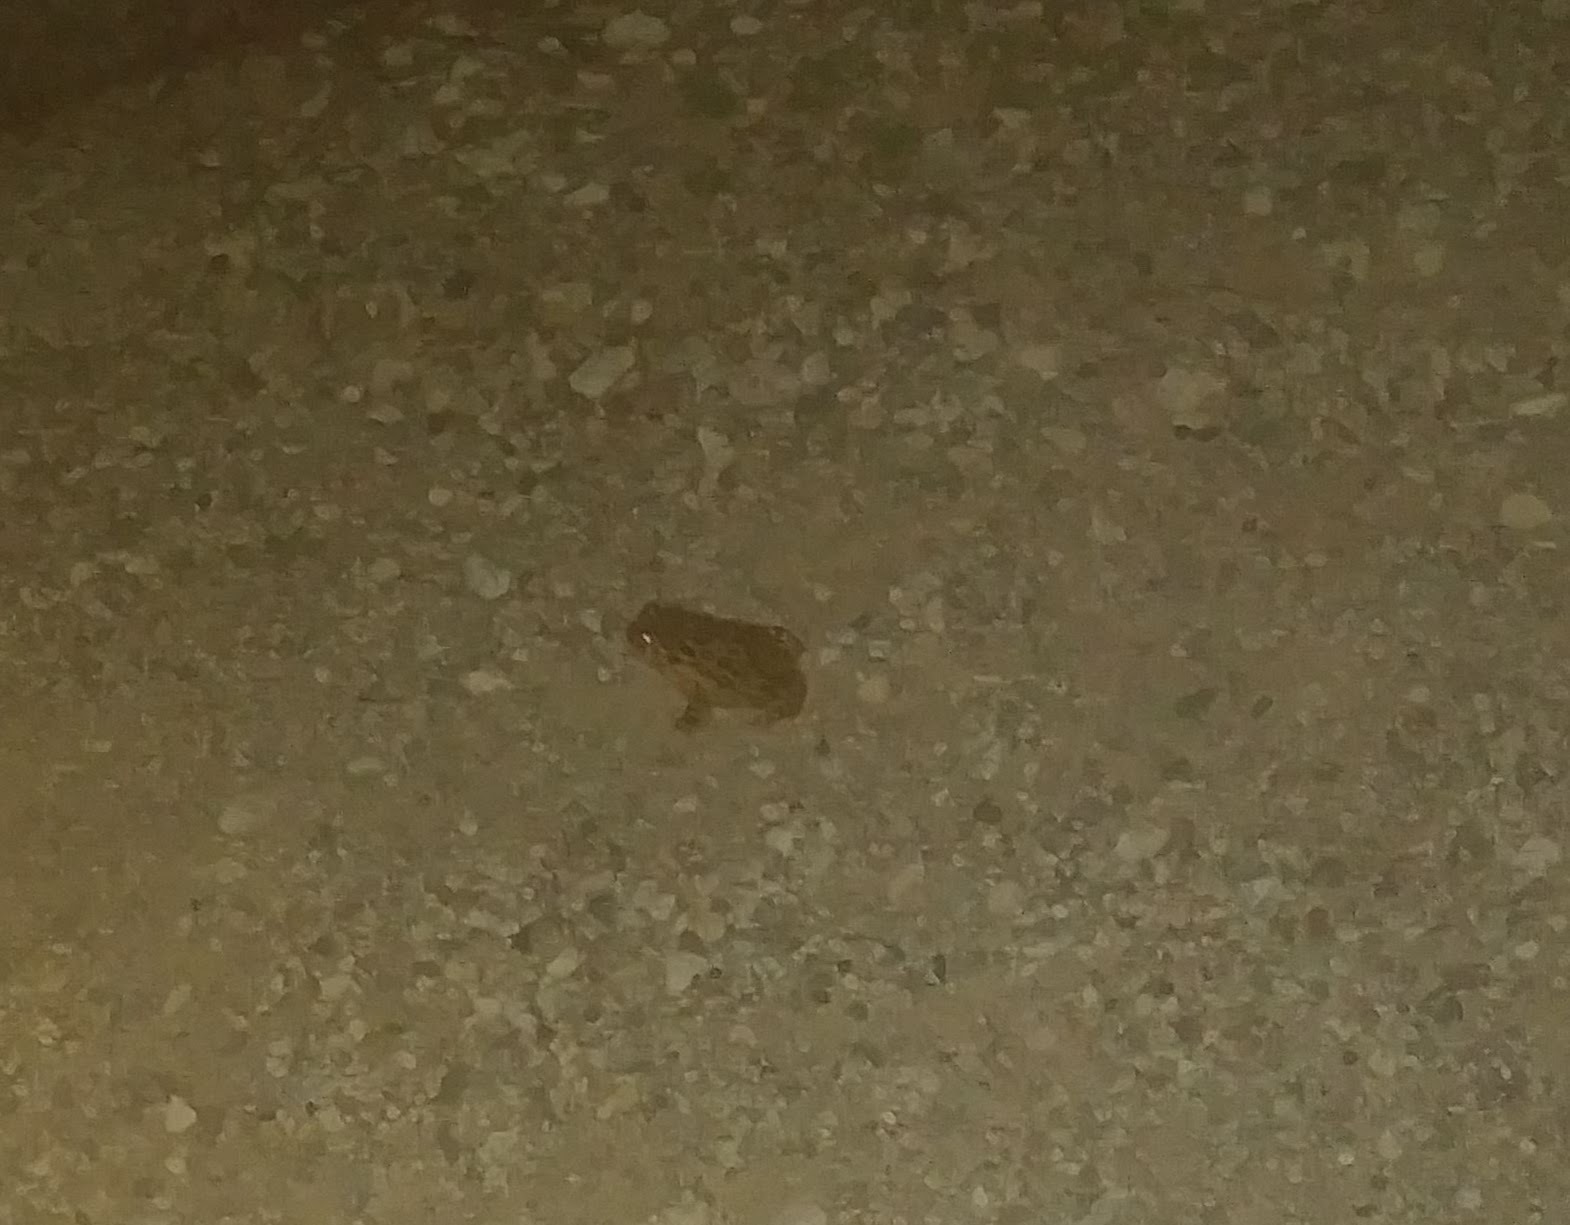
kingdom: Animalia
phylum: Chordata
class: Amphibia
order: Anura
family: Bufonidae
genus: Anaxyrus
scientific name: Anaxyrus boreas
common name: Western toad
